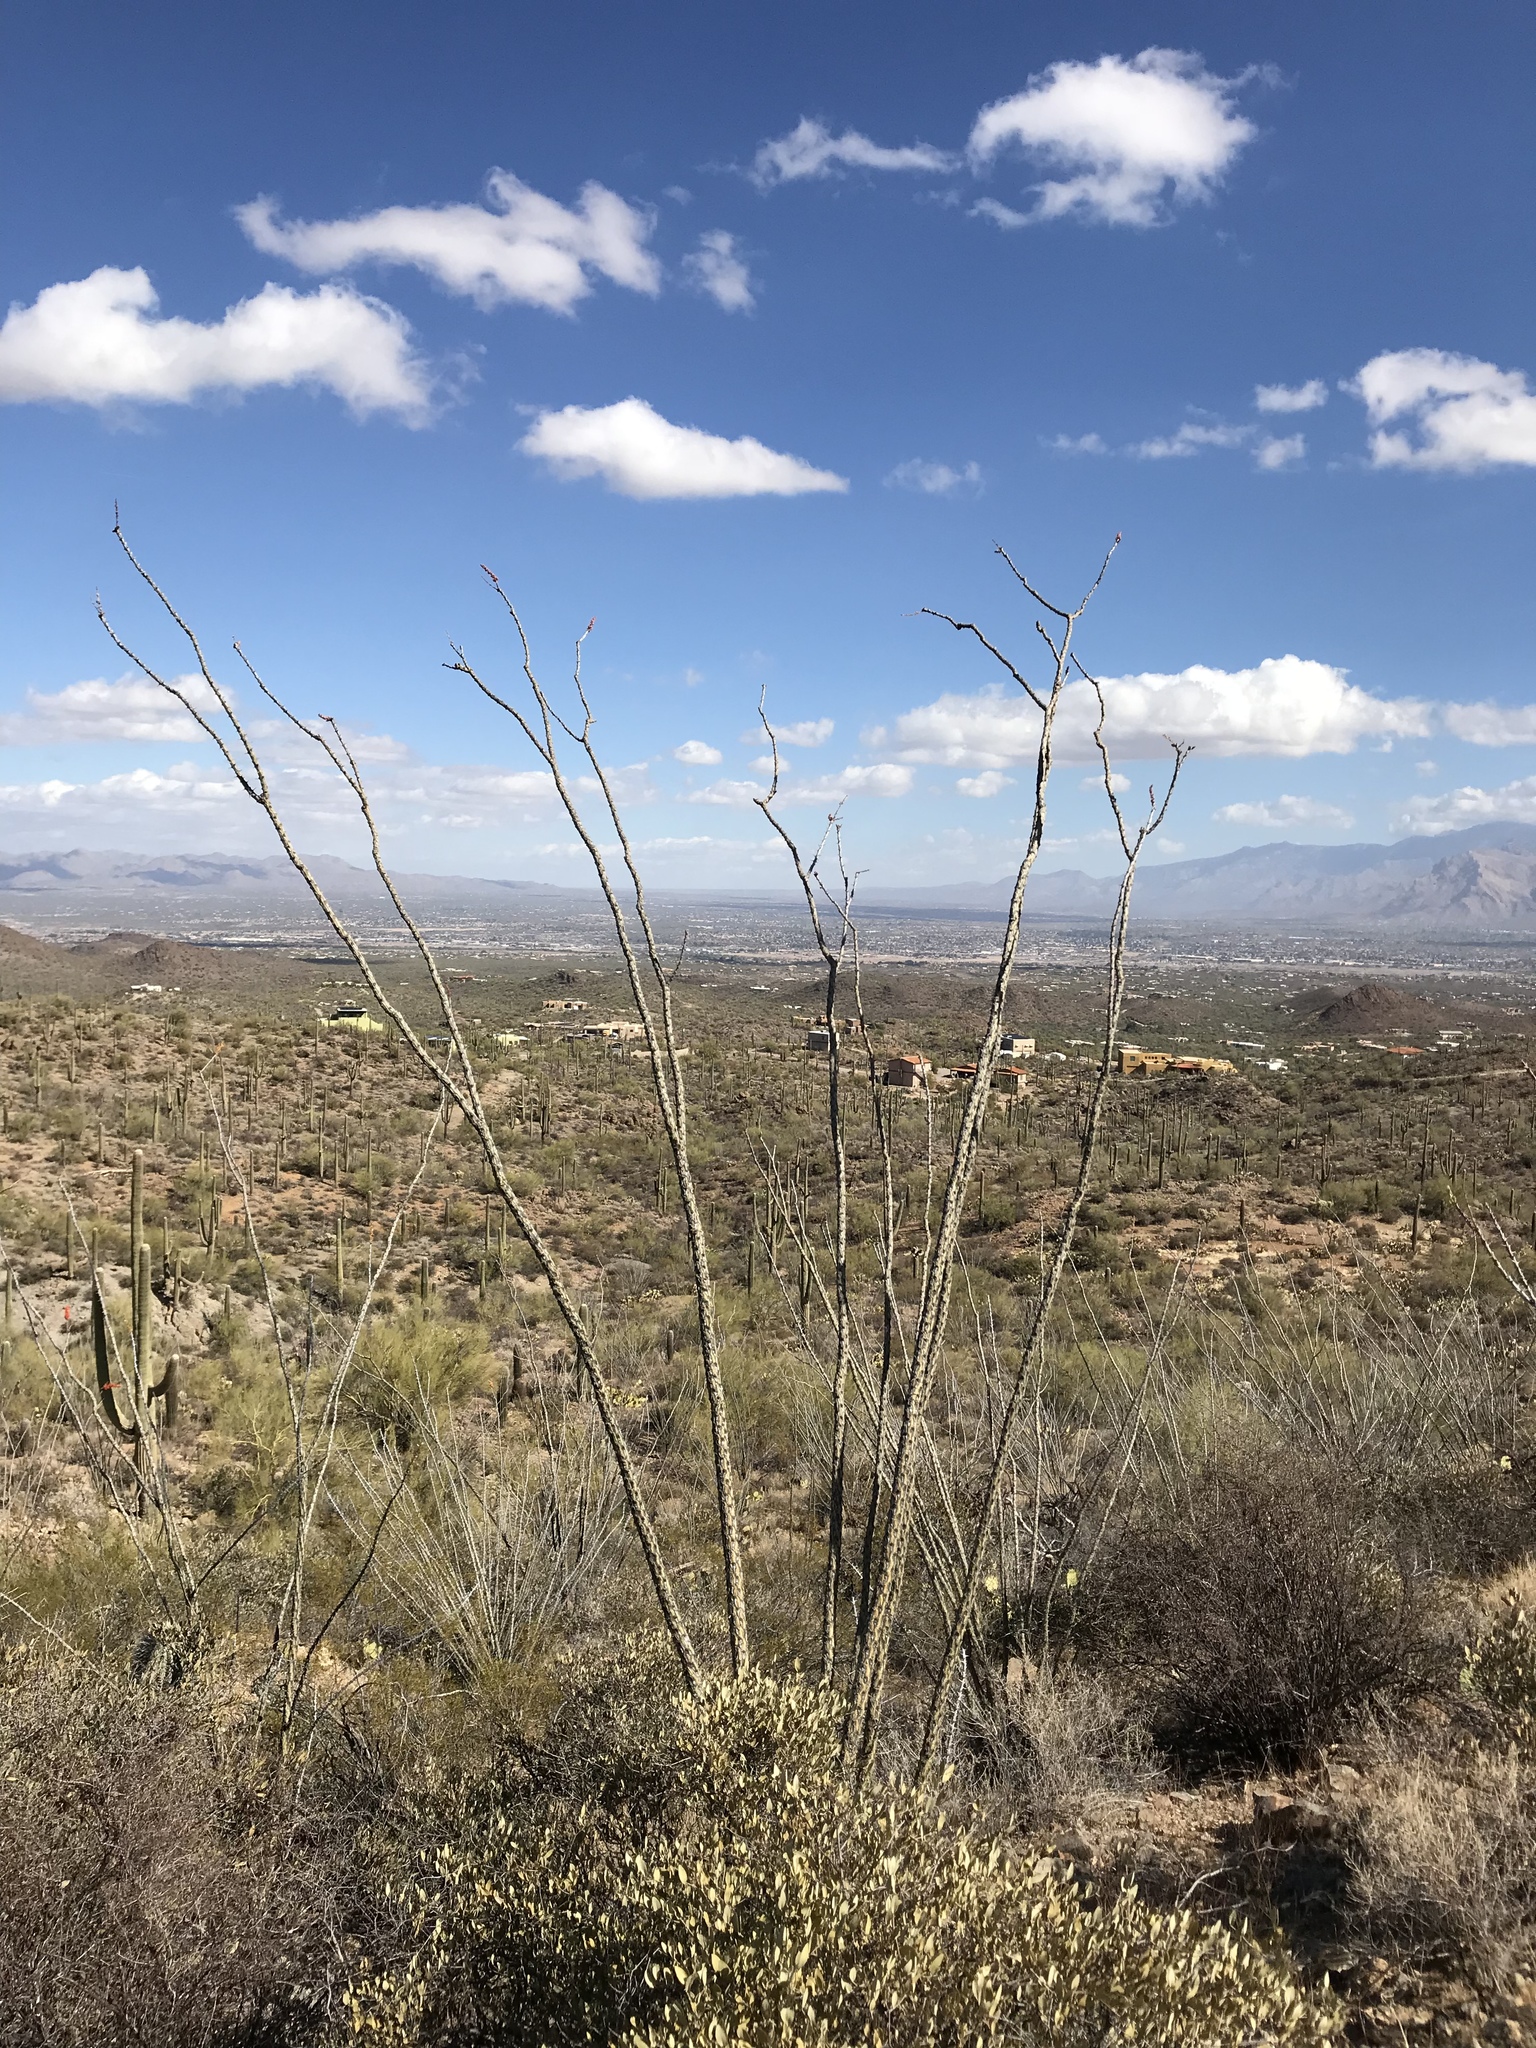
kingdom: Plantae
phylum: Tracheophyta
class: Magnoliopsida
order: Ericales
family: Fouquieriaceae
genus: Fouquieria
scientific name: Fouquieria splendens
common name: Vine-cactus
